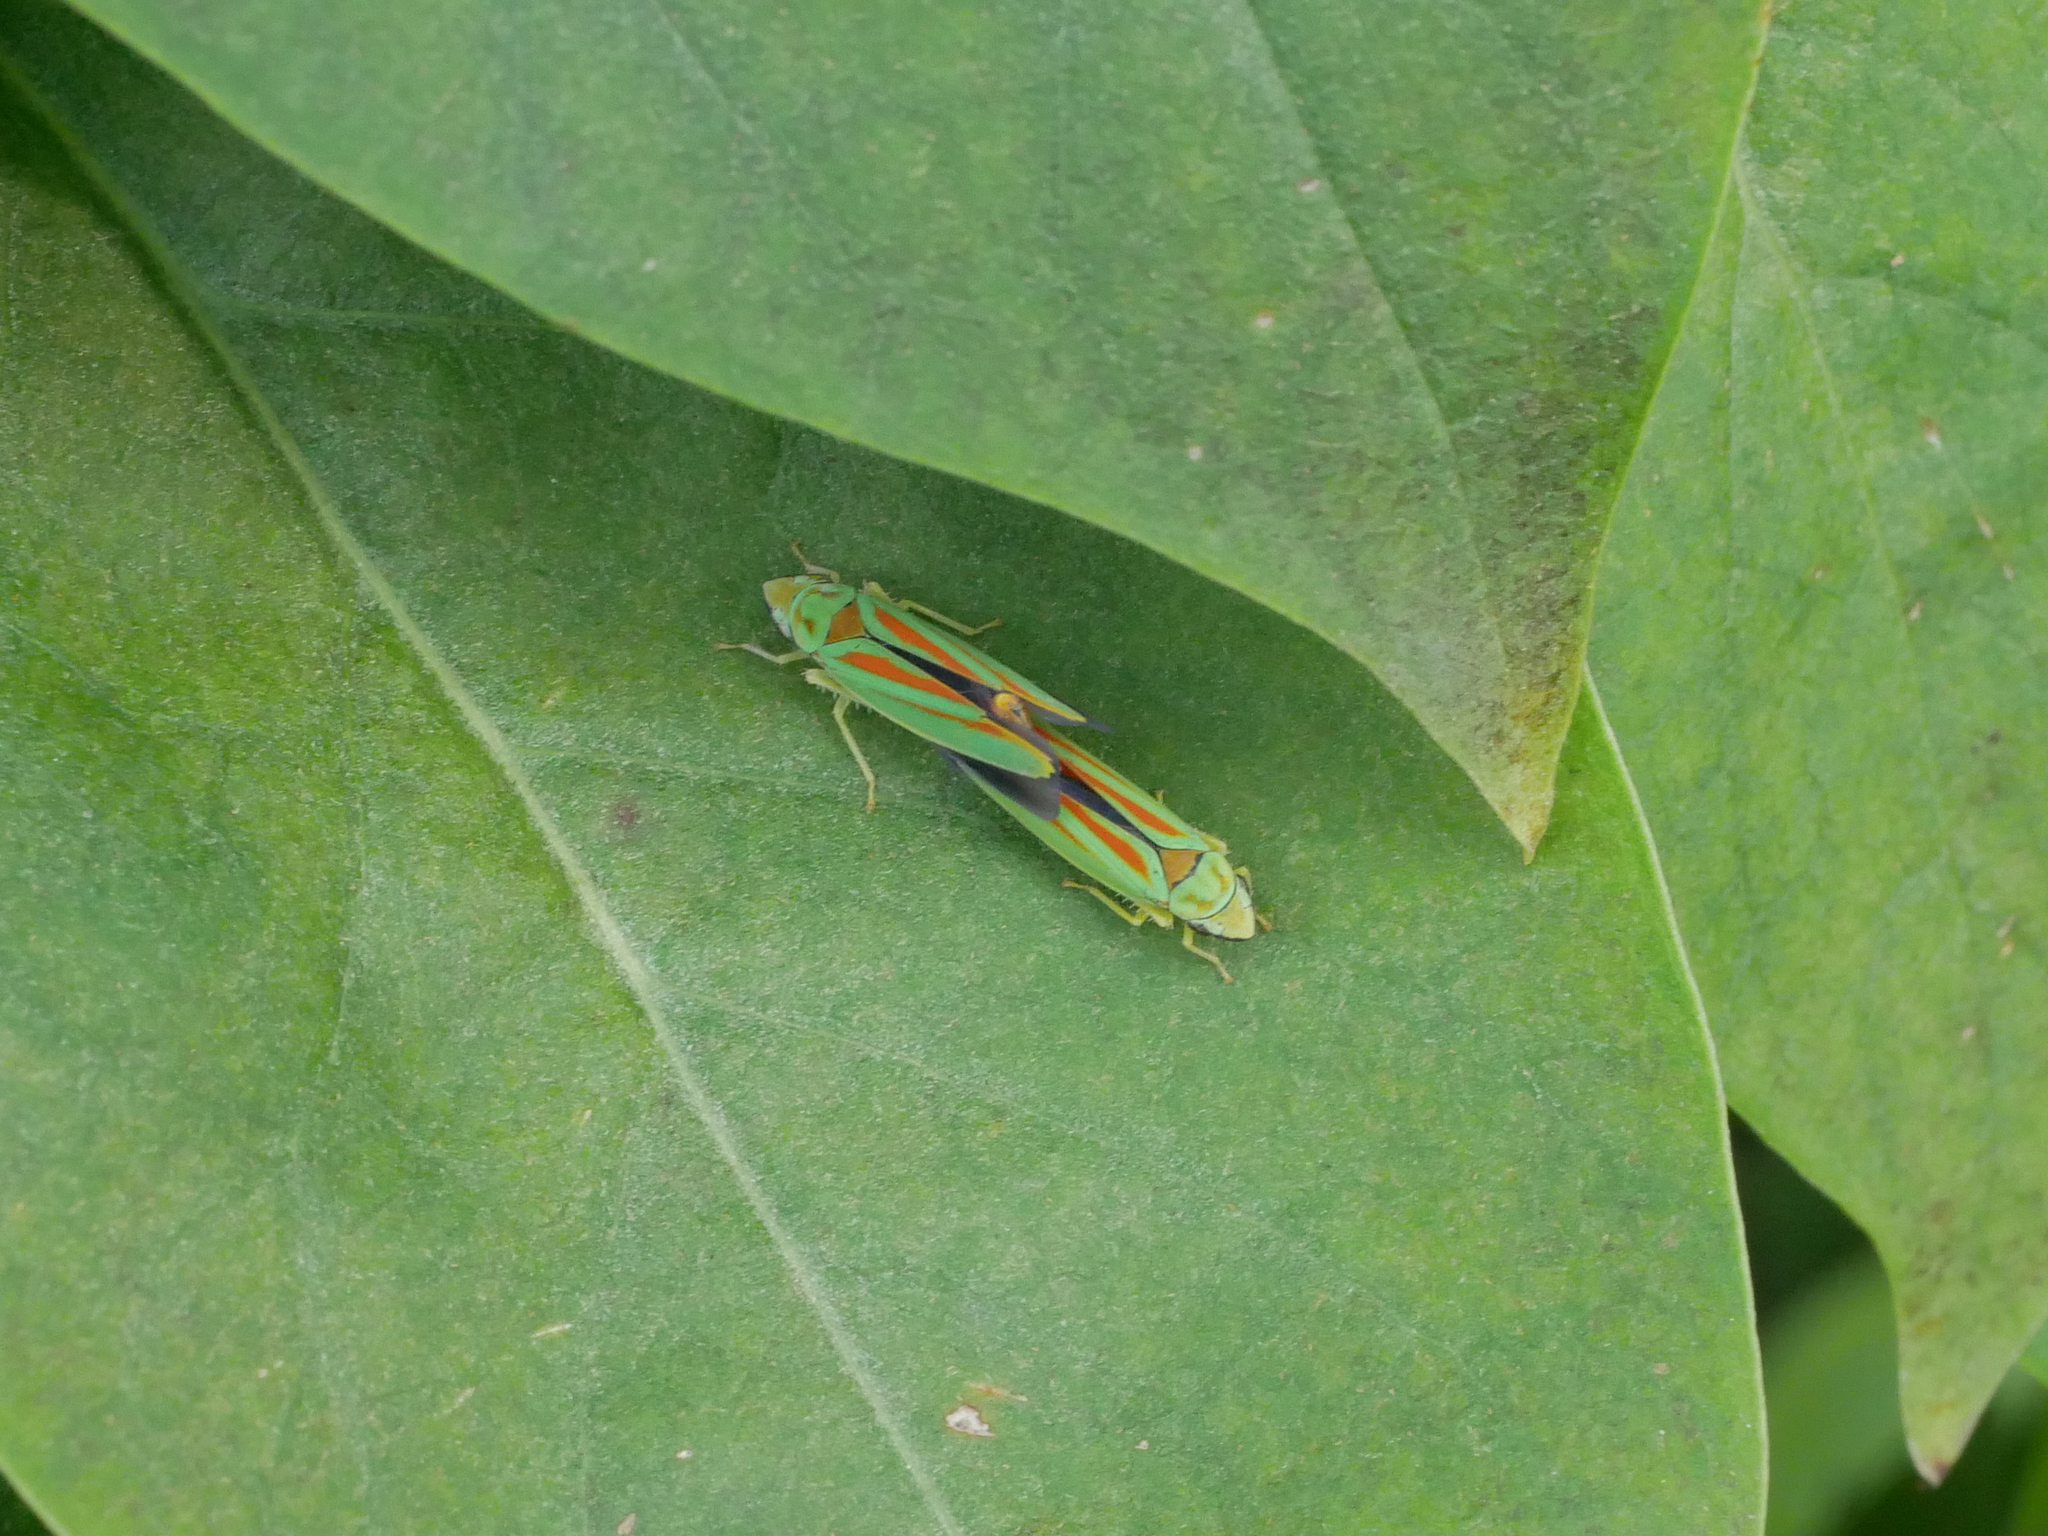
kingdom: Animalia
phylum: Arthropoda
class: Insecta
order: Hemiptera
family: Cicadellidae
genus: Graphocephala
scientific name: Graphocephala fennahi
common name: Rhododendron leafhopper
